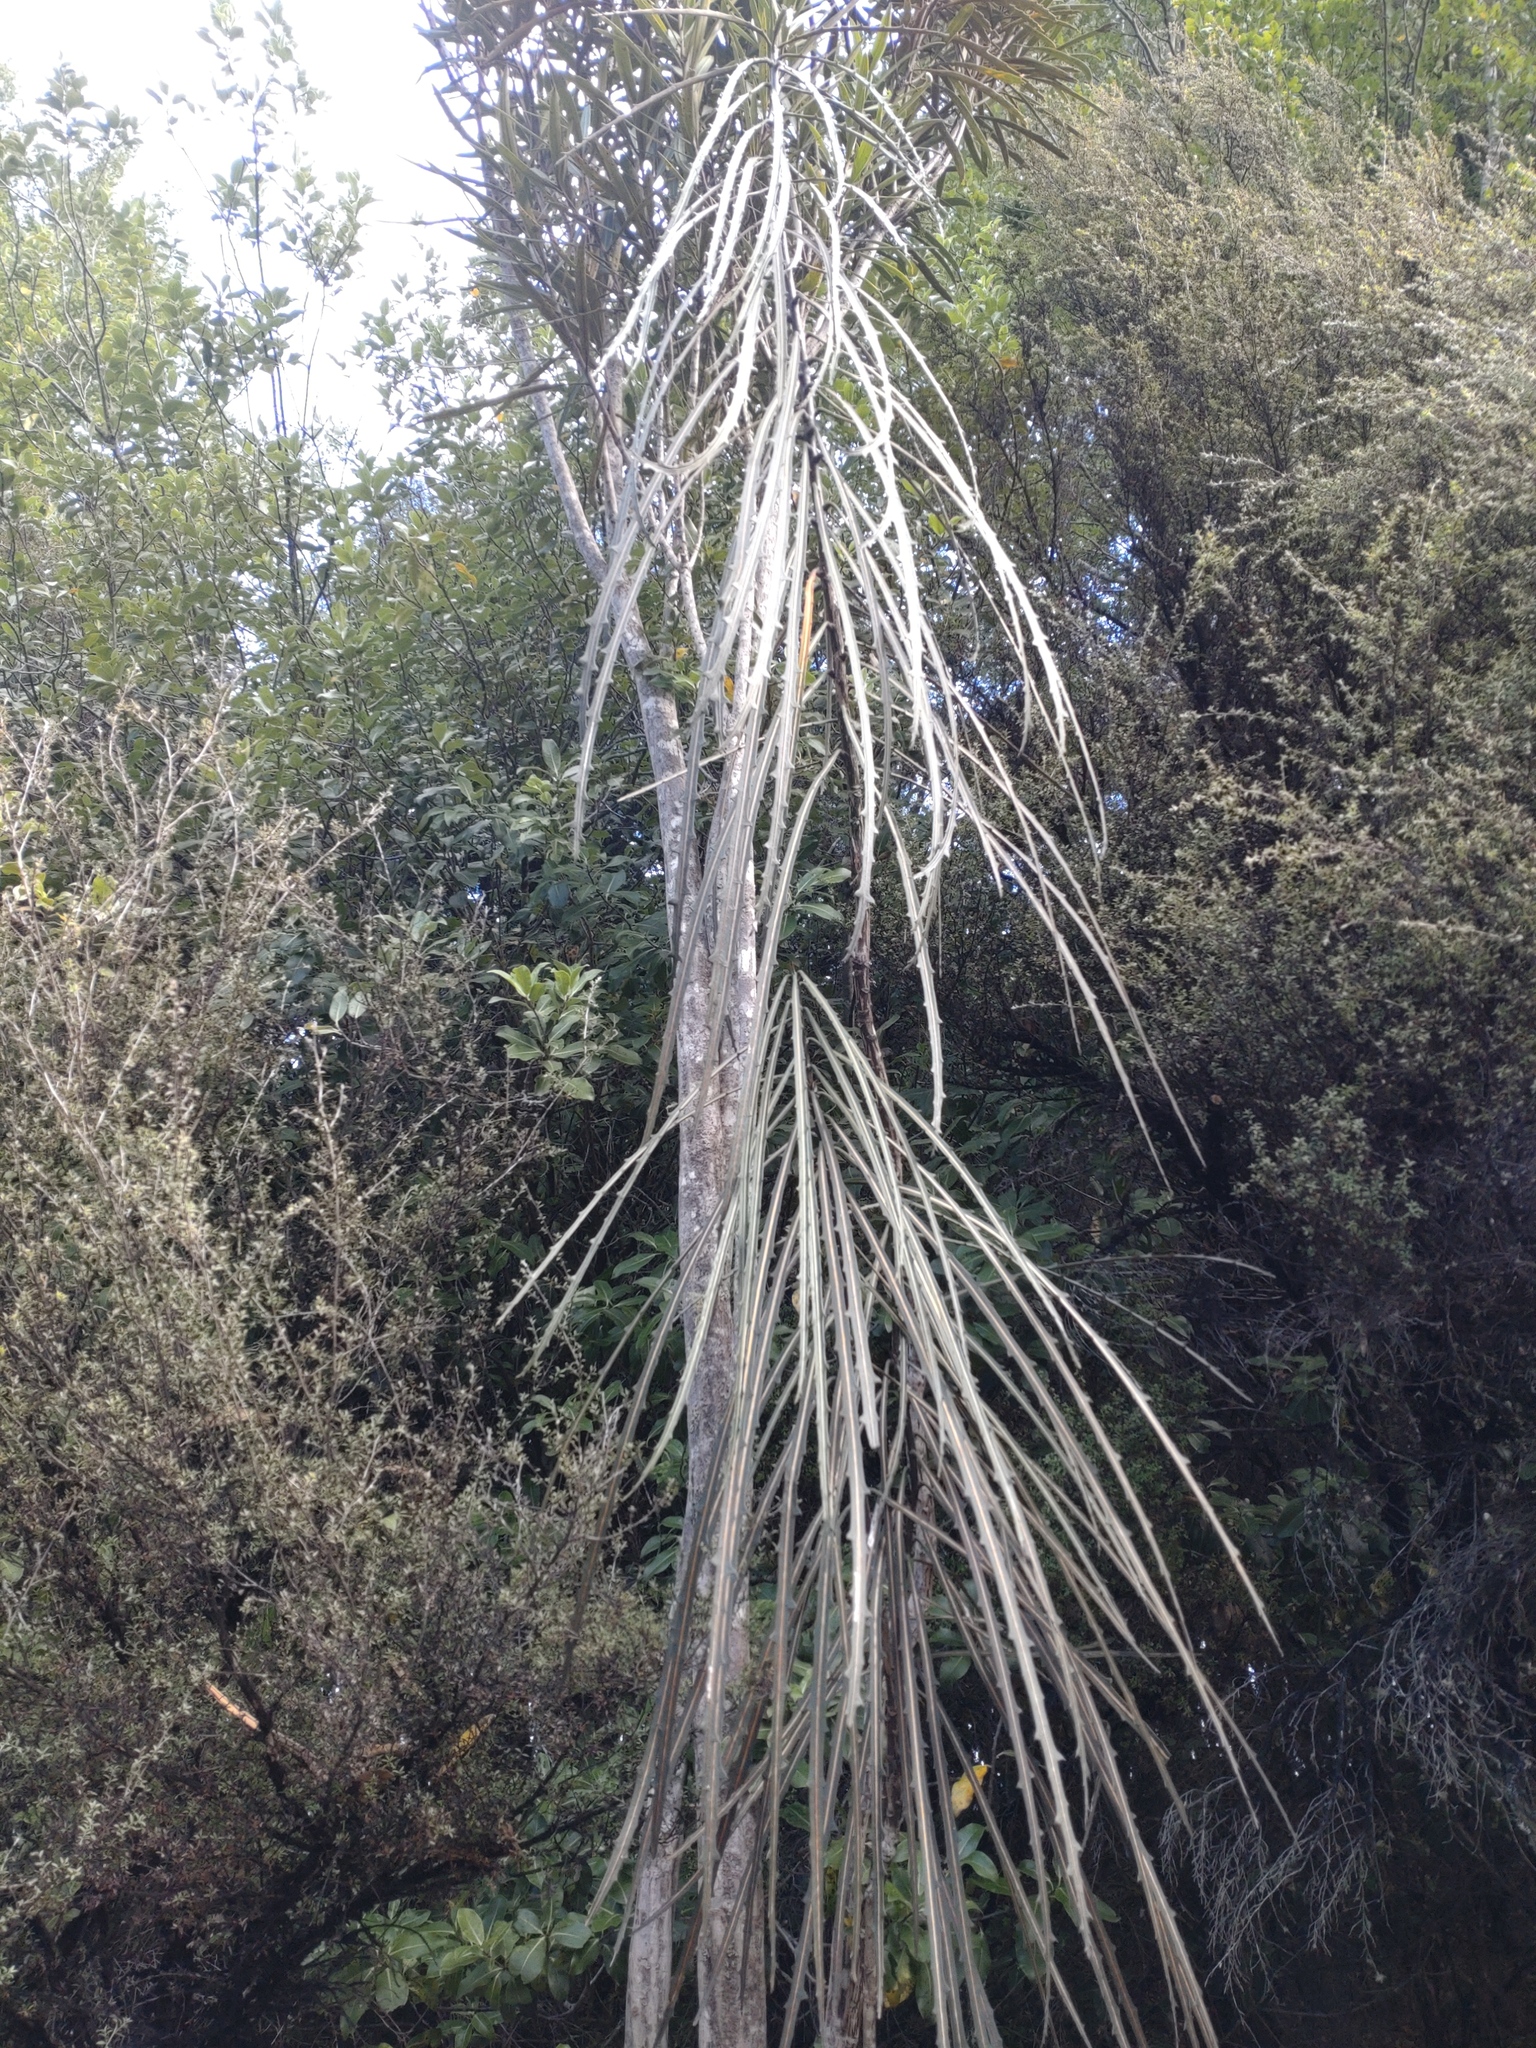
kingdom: Plantae
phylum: Tracheophyta
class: Magnoliopsida
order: Apiales
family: Araliaceae
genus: Pseudopanax
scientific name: Pseudopanax crassifolius
